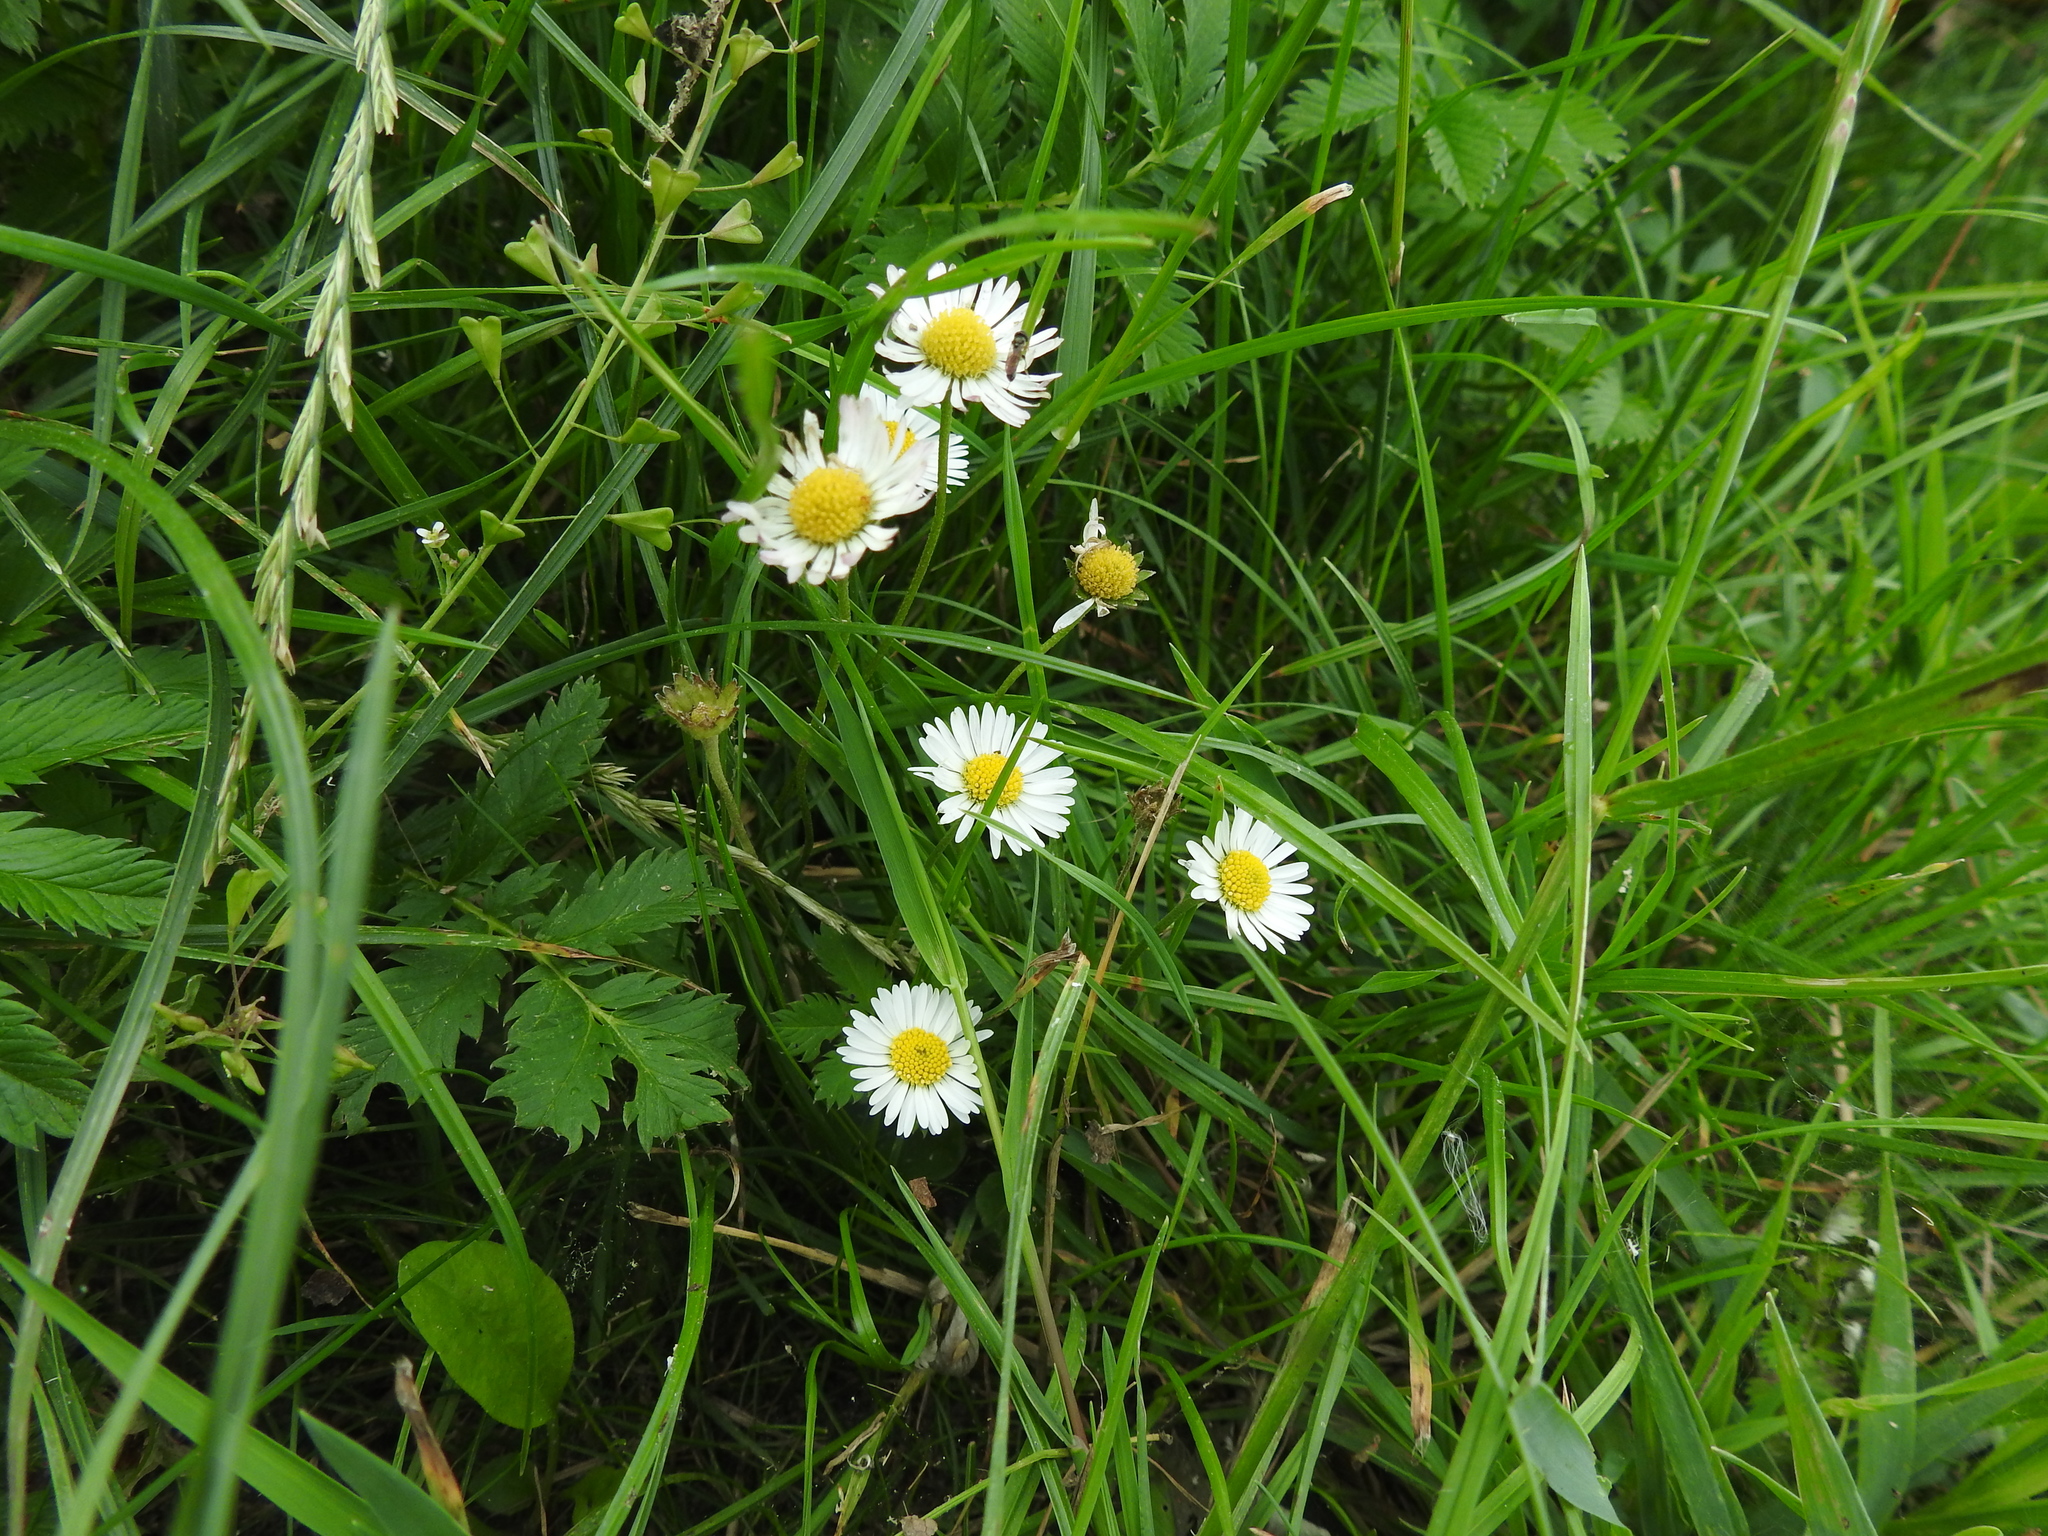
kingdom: Plantae
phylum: Tracheophyta
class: Magnoliopsida
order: Asterales
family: Asteraceae
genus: Bellis
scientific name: Bellis perennis
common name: Lawndaisy
